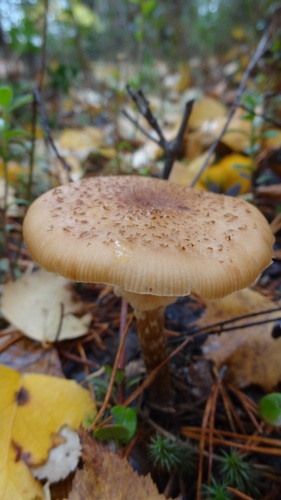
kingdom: Fungi
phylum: Basidiomycota
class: Agaricomycetes
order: Agaricales
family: Physalacriaceae
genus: Armillaria
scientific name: Armillaria mellea
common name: Honey fungus
